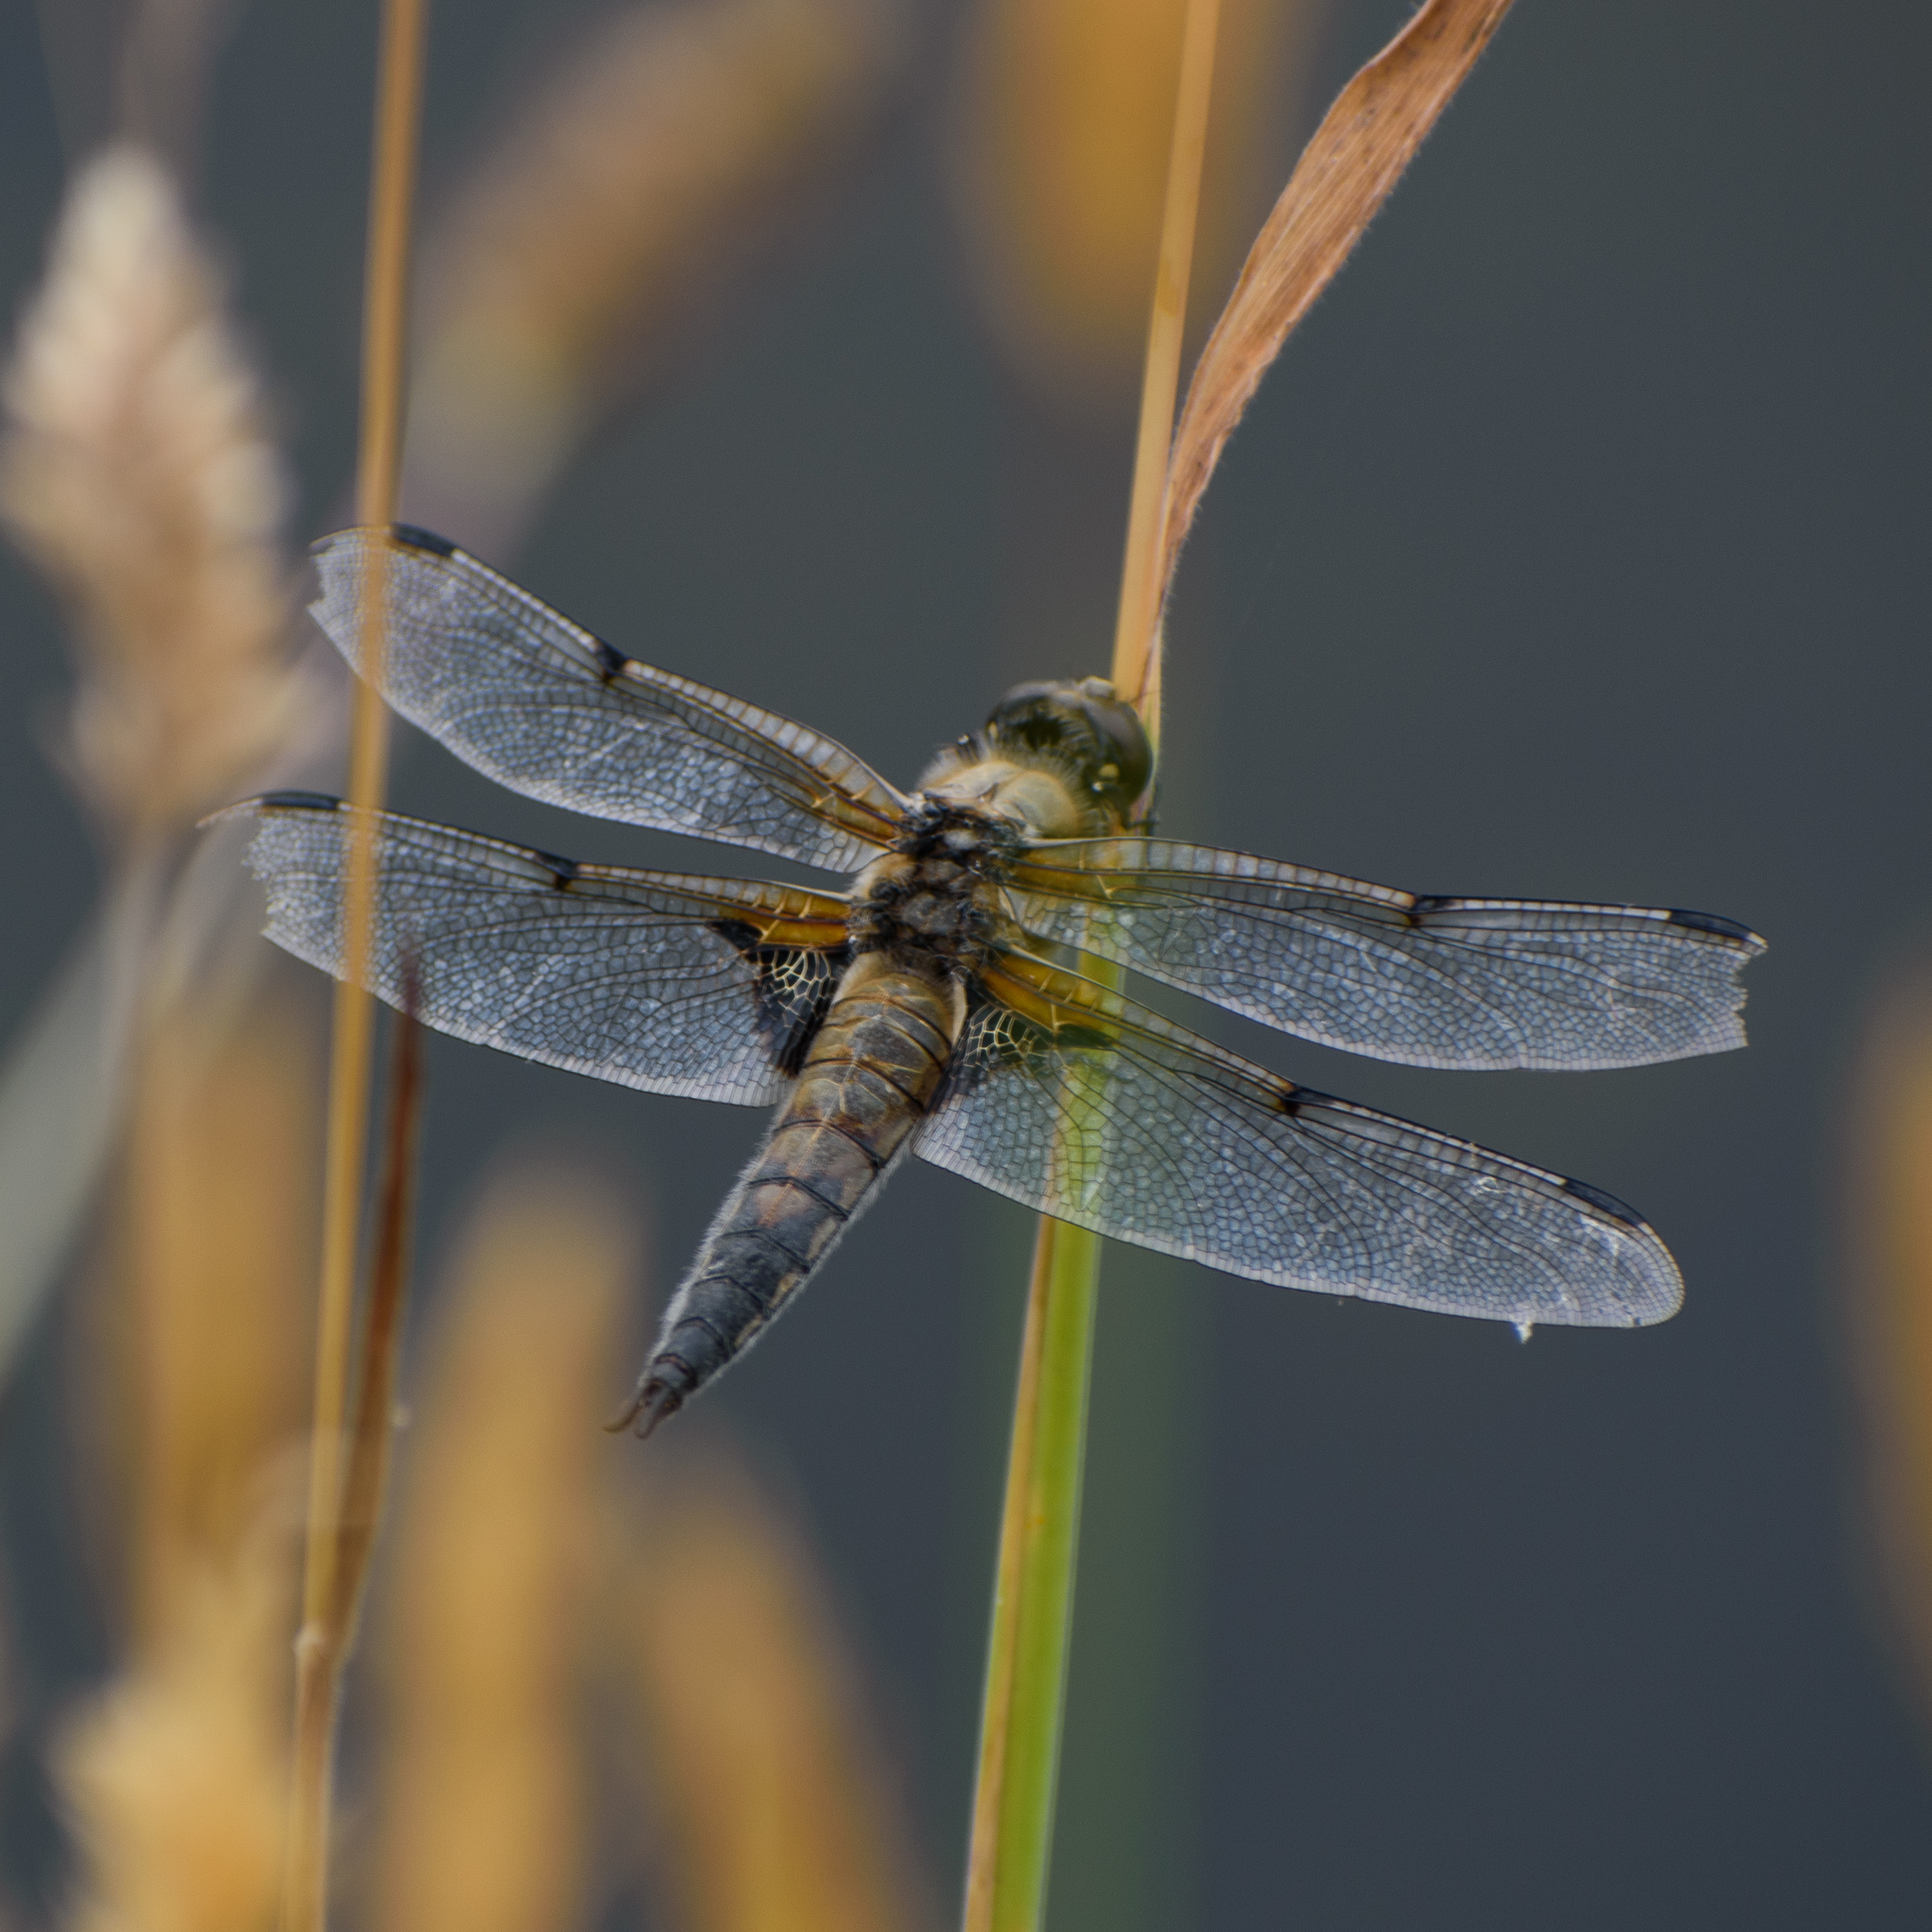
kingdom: Animalia
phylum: Arthropoda
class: Insecta
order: Odonata
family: Libellulidae
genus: Libellula
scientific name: Libellula quadrimaculata
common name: Four-spotted chaser
